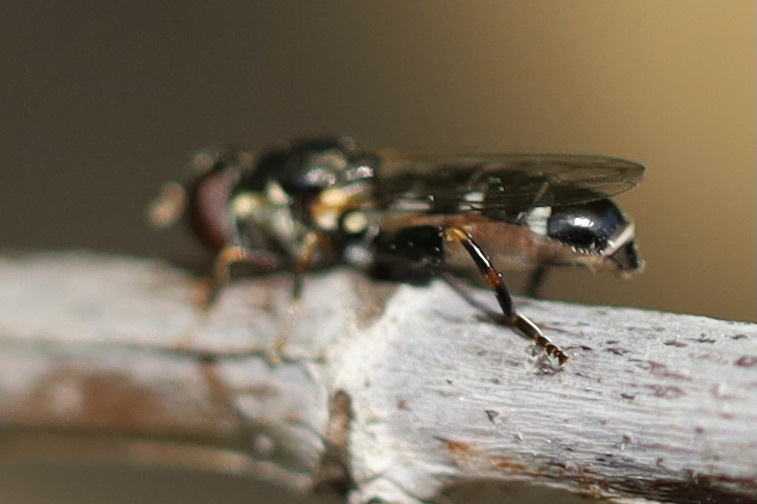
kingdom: Animalia
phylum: Arthropoda
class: Insecta
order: Diptera
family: Syrphidae
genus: Syritta
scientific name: Syritta pipiens
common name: Hover fly
